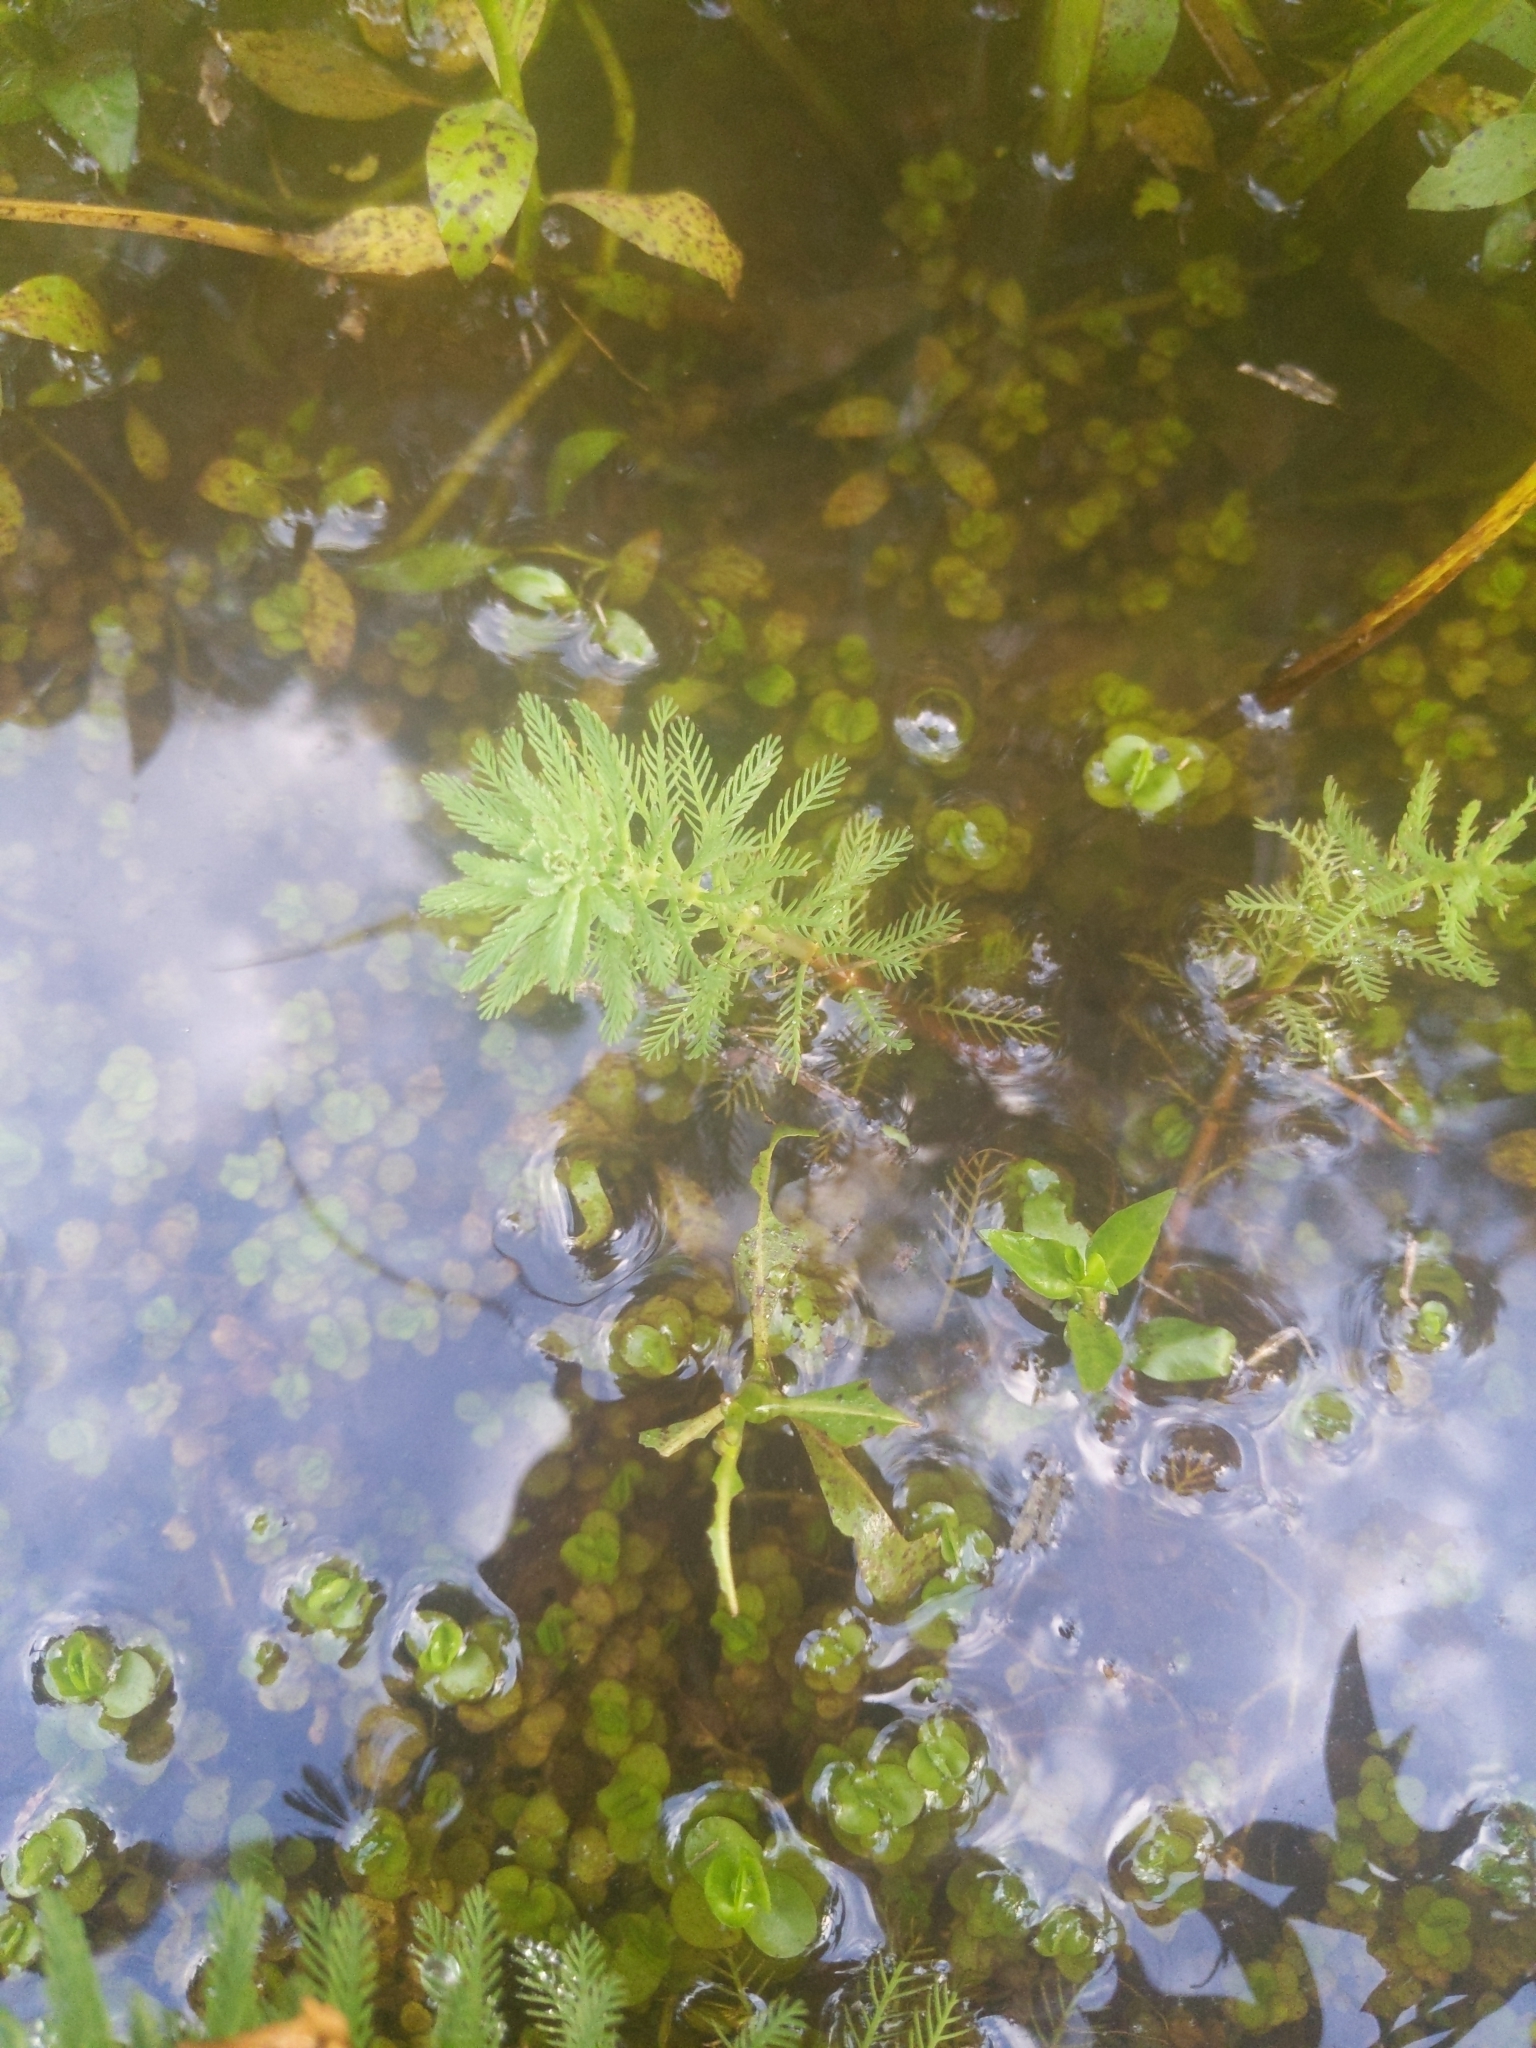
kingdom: Plantae
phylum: Tracheophyta
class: Magnoliopsida
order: Saxifragales
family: Haloragaceae
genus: Myriophyllum
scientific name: Myriophyllum aquaticum
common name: Parrot's feather
